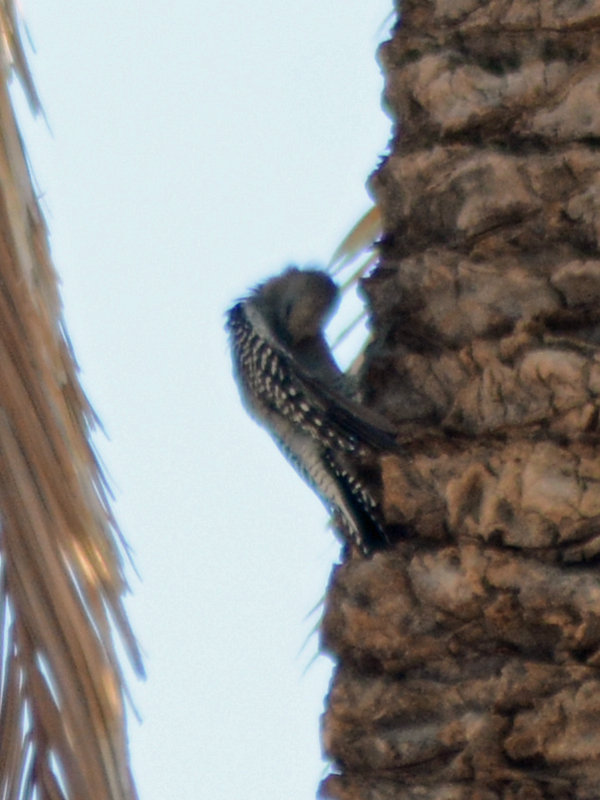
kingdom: Animalia
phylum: Chordata
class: Aves
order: Piciformes
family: Picidae
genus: Melanerpes
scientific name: Melanerpes uropygialis
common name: Gila woodpecker
